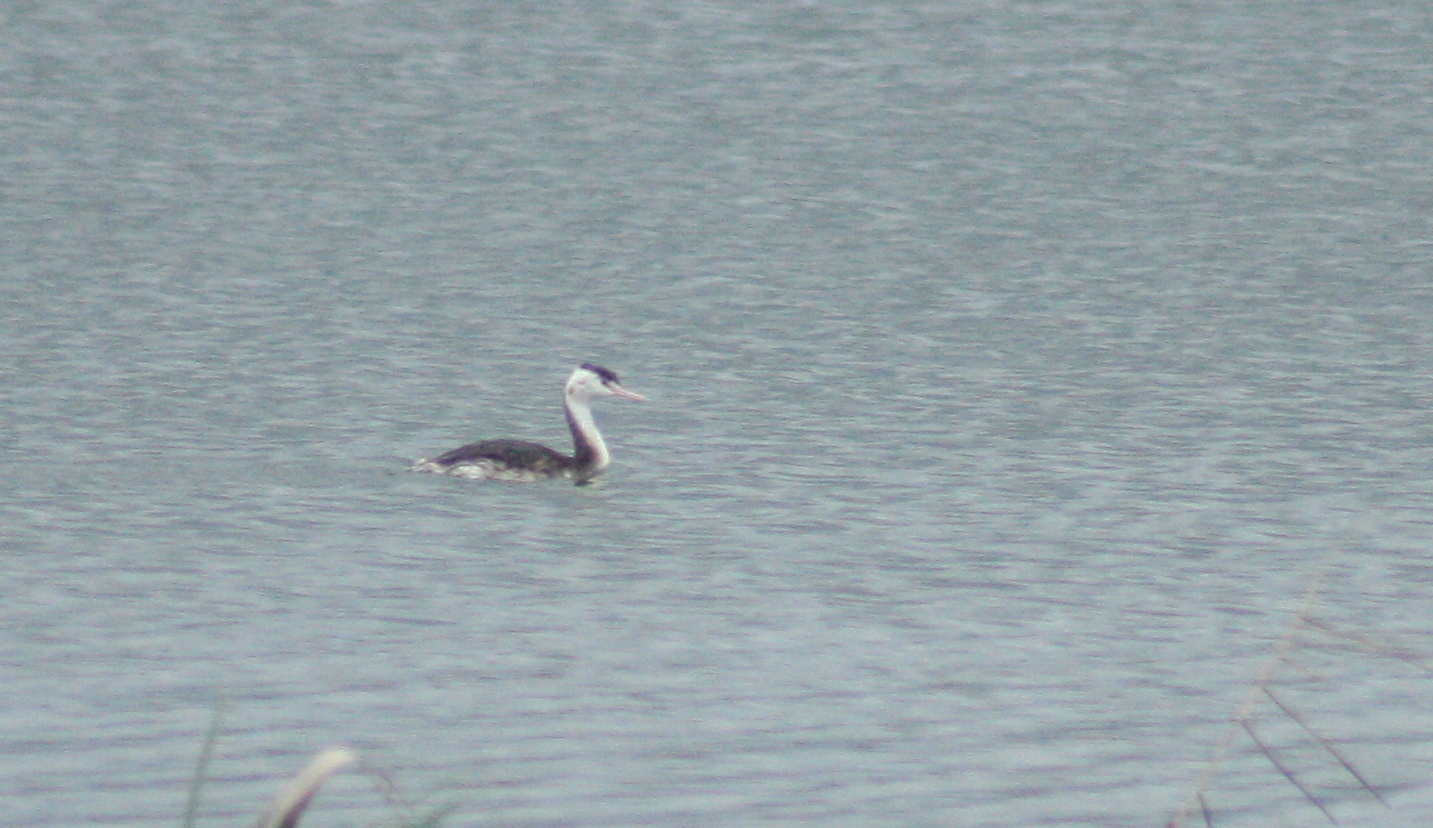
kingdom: Animalia
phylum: Chordata
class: Aves
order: Podicipediformes
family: Podicipedidae
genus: Podiceps
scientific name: Podiceps cristatus
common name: Great crested grebe
